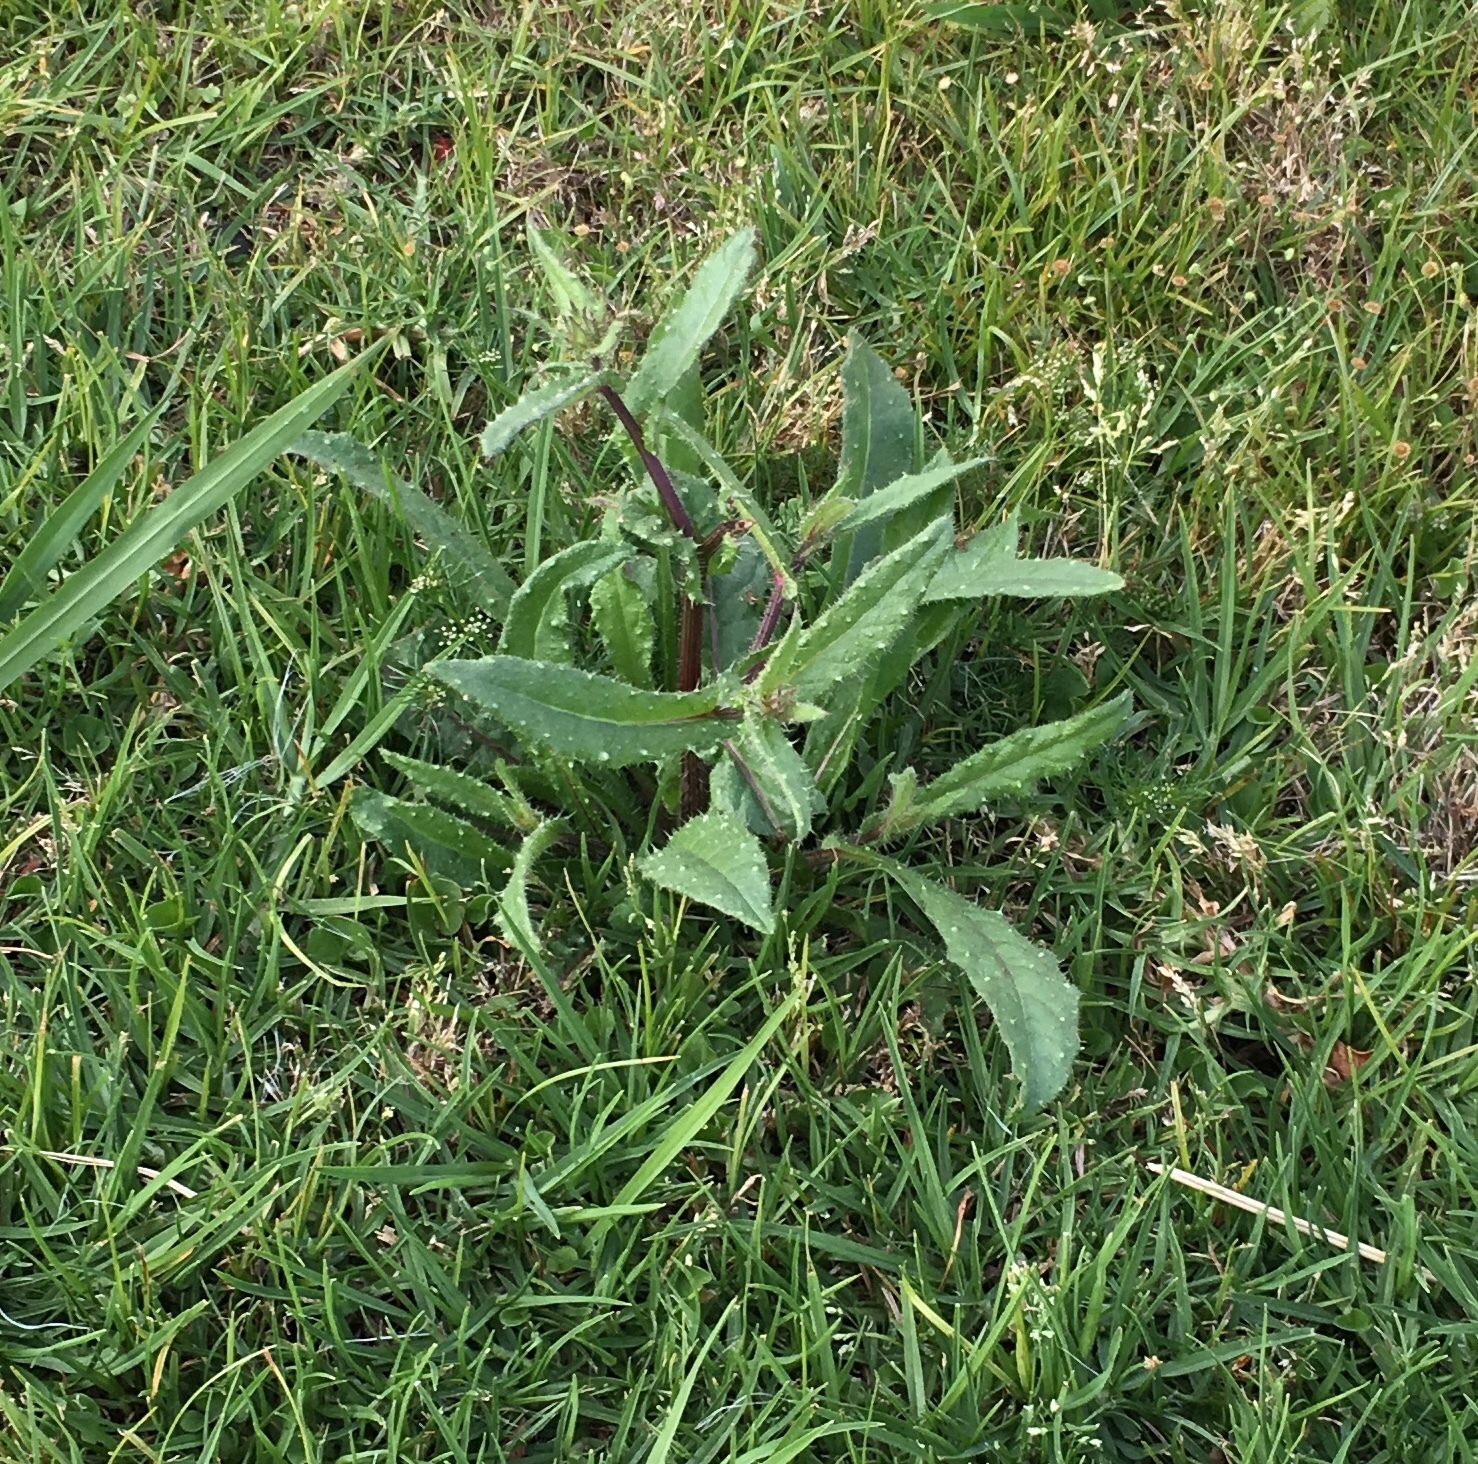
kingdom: Plantae
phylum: Tracheophyta
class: Magnoliopsida
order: Asterales
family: Asteraceae
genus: Helminthotheca
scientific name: Helminthotheca echioides
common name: Ox-tongue
